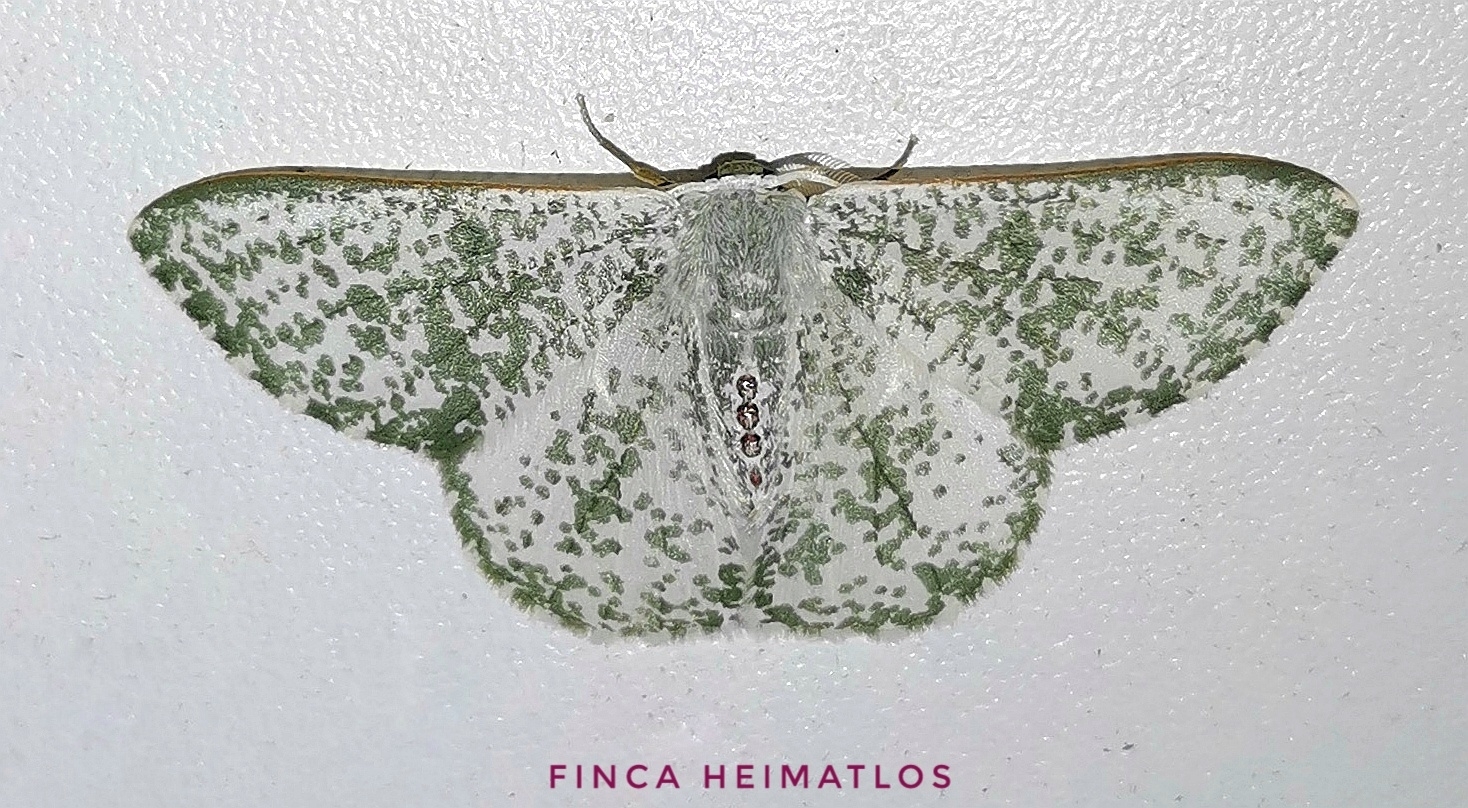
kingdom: Animalia
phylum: Arthropoda
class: Insecta
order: Lepidoptera
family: Geometridae
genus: Oospila
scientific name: Oospila sporadata
